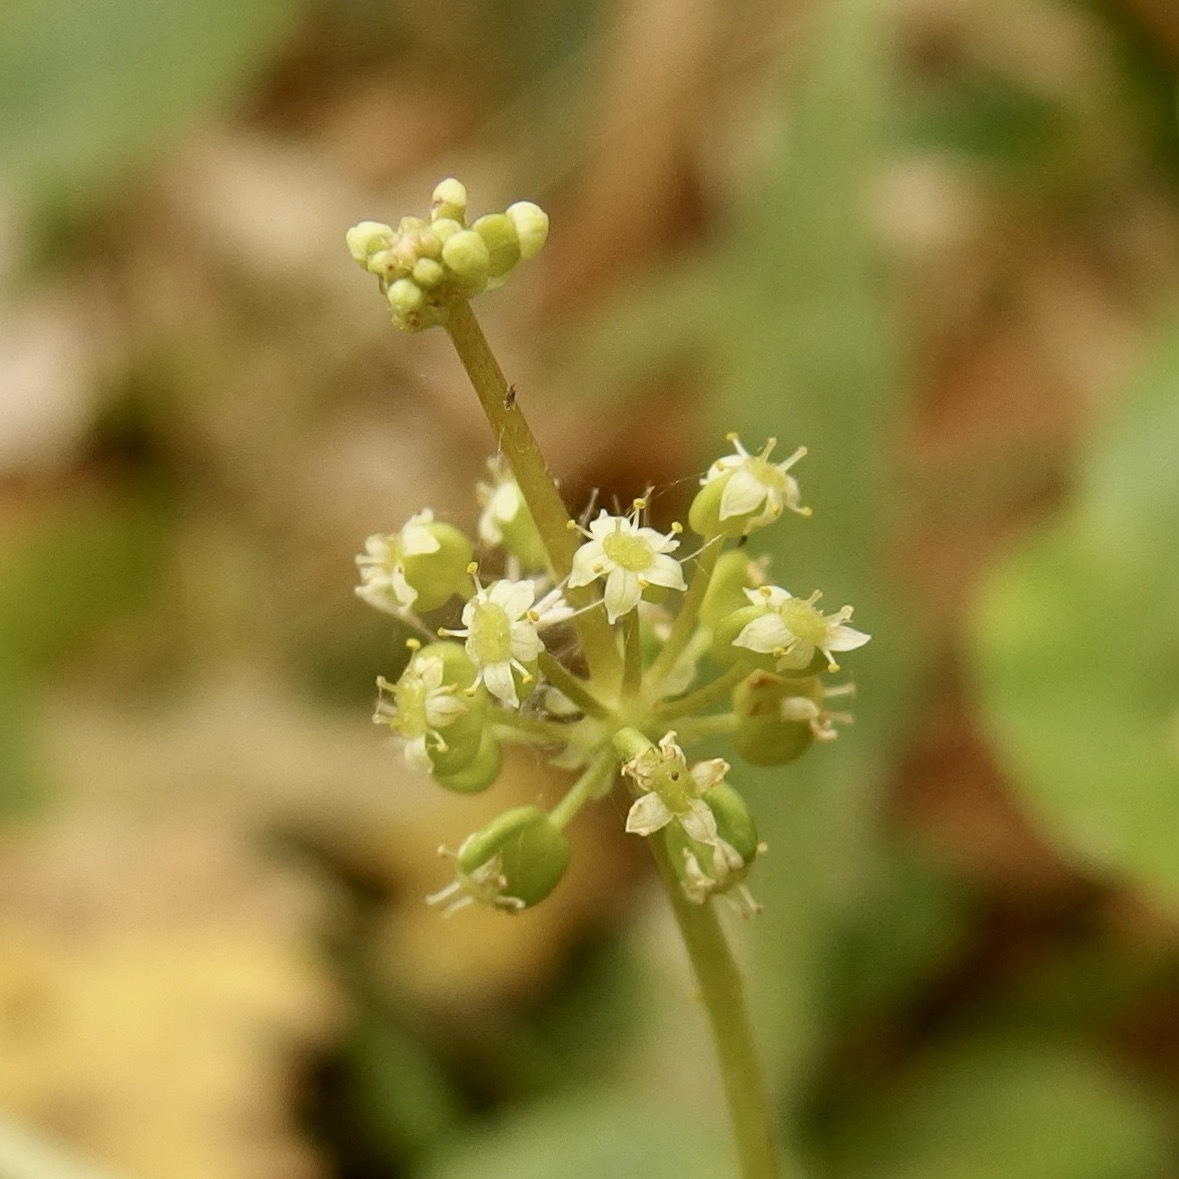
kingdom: Plantae
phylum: Tracheophyta
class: Magnoliopsida
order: Apiales
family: Araliaceae
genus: Hydrocotyle
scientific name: Hydrocotyle verticillata
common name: Whorled marshpennywort
